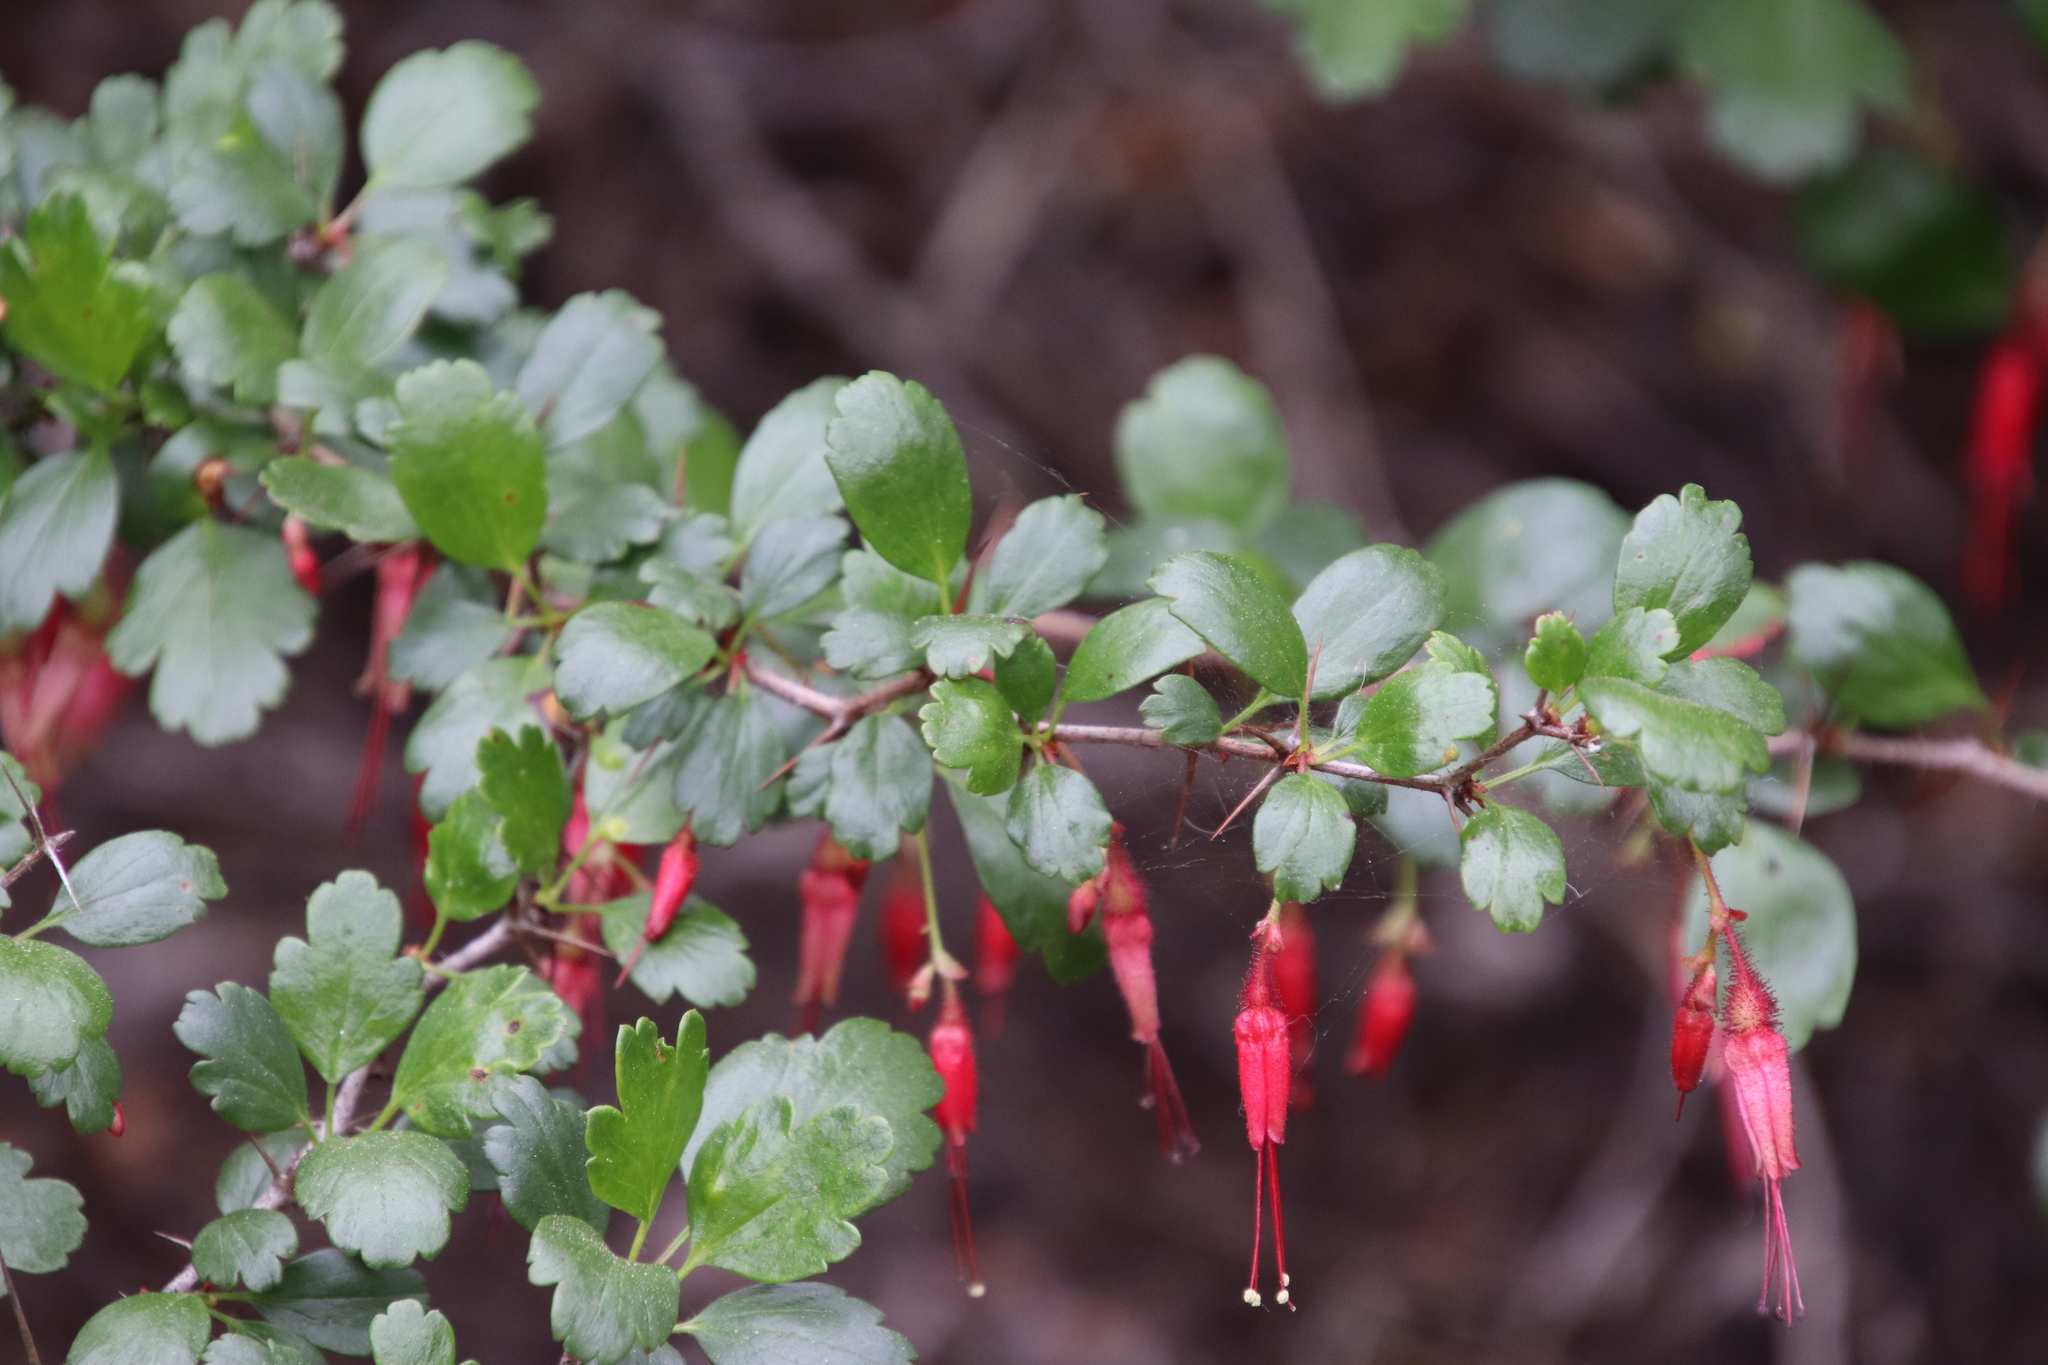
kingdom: Plantae
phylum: Tracheophyta
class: Magnoliopsida
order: Saxifragales
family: Grossulariaceae
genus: Ribes
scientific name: Ribes speciosum
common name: Fuchsia-flower gooseberry
